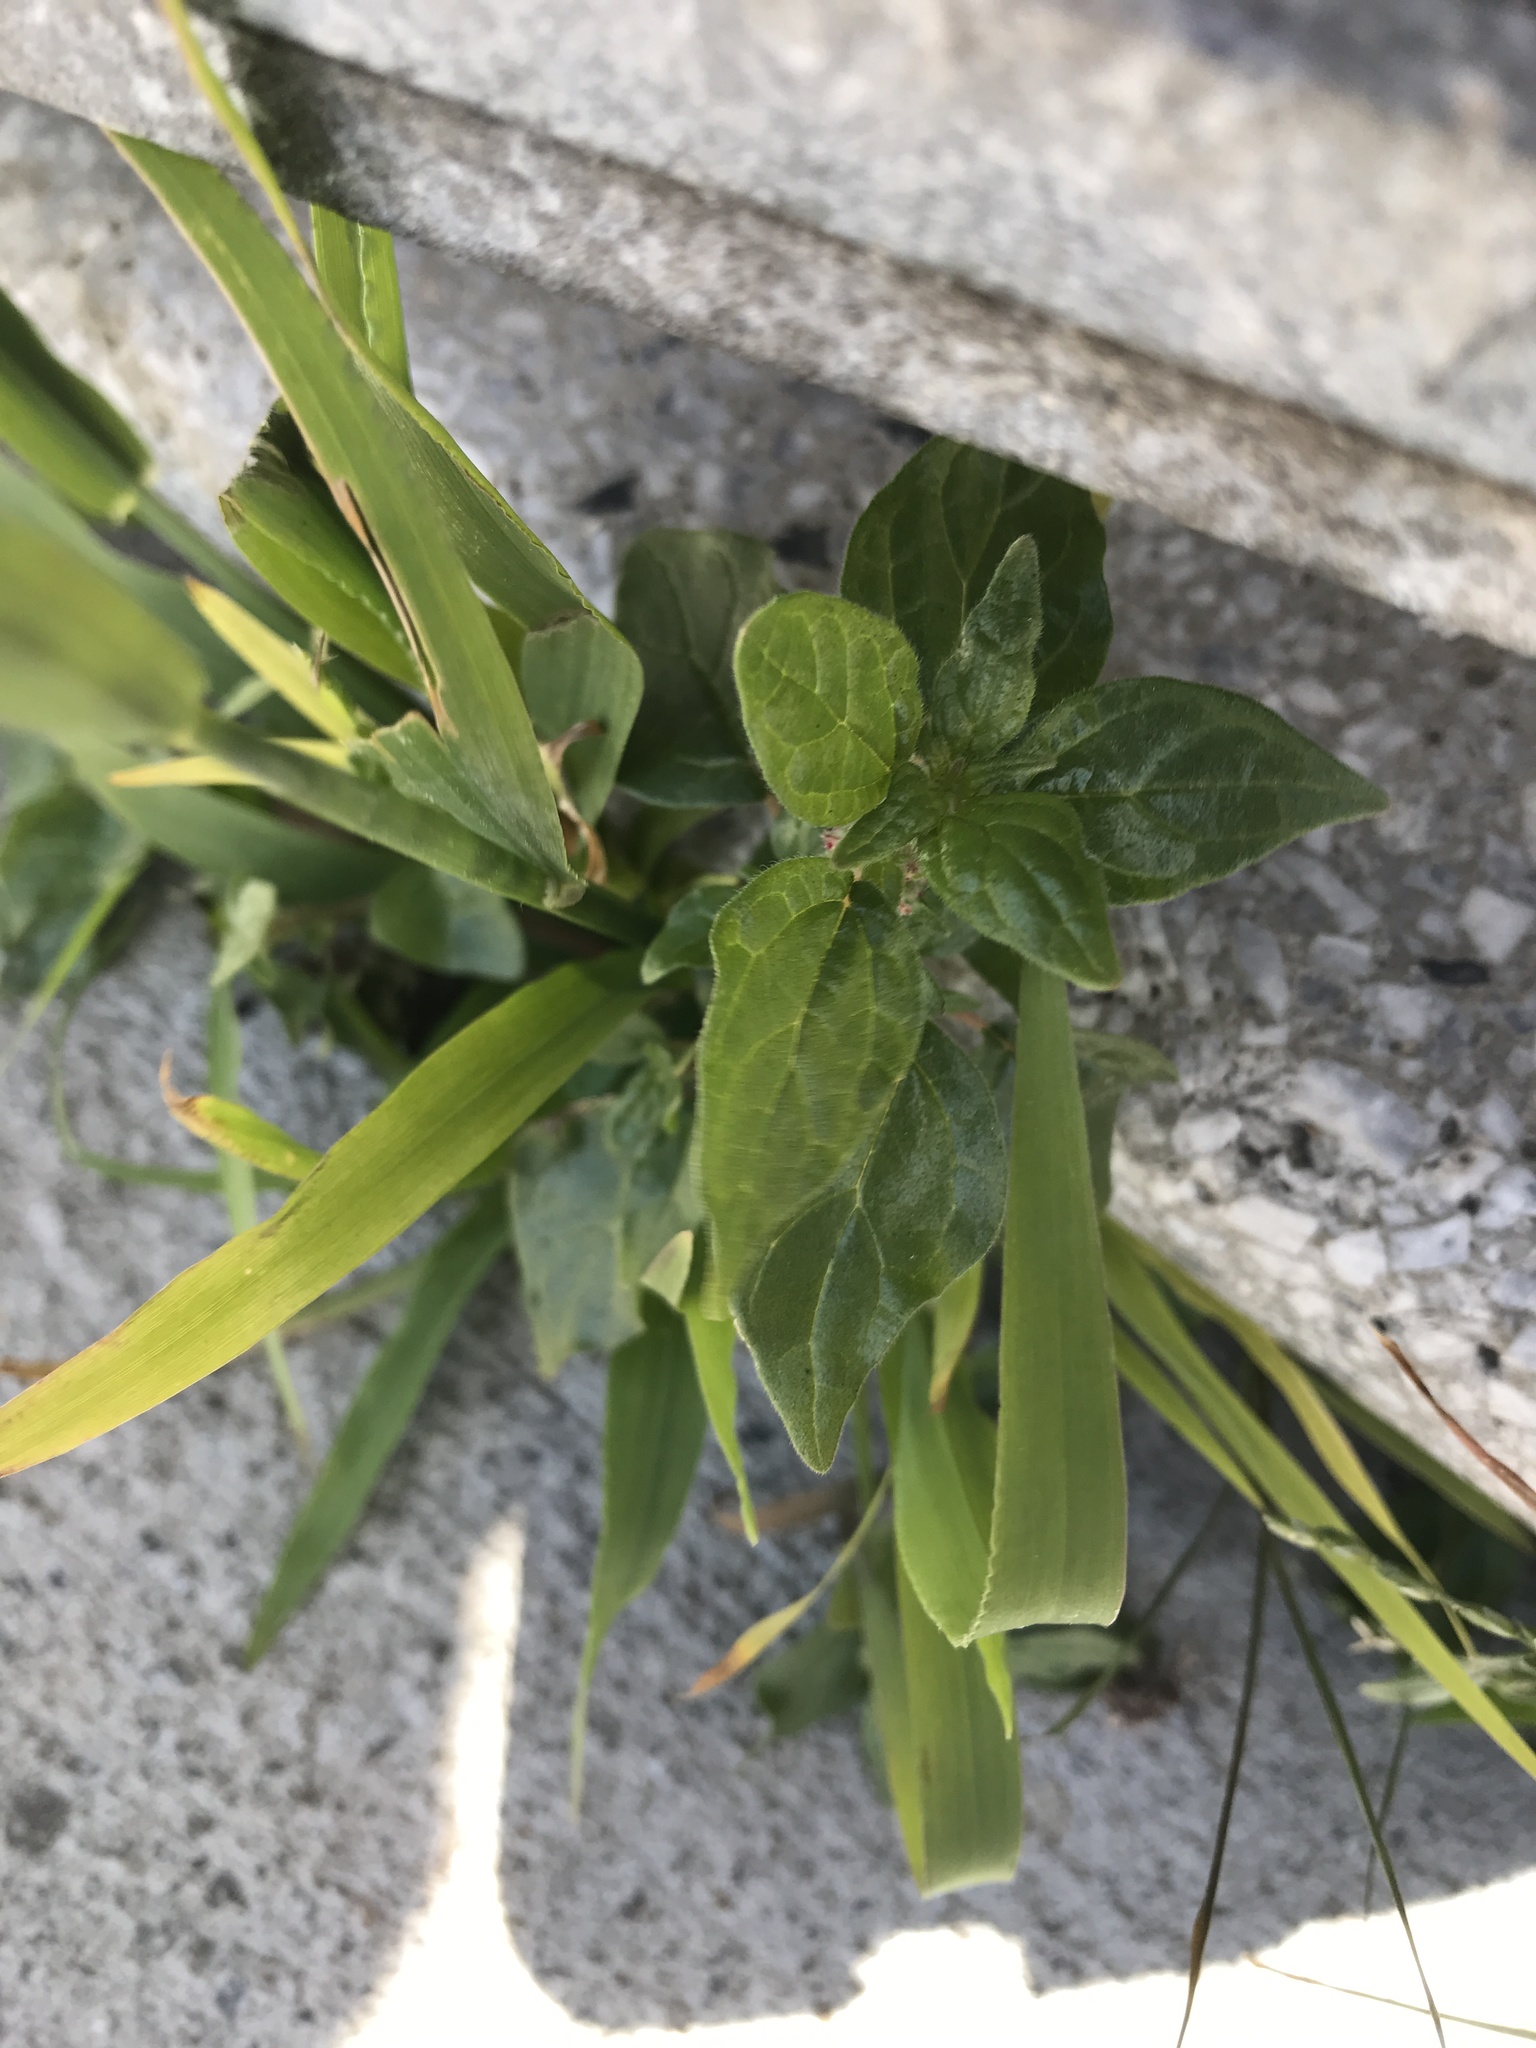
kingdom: Plantae
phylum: Tracheophyta
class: Magnoliopsida
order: Rosales
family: Urticaceae
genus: Parietaria
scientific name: Parietaria judaica
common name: Pellitory-of-the-wall
